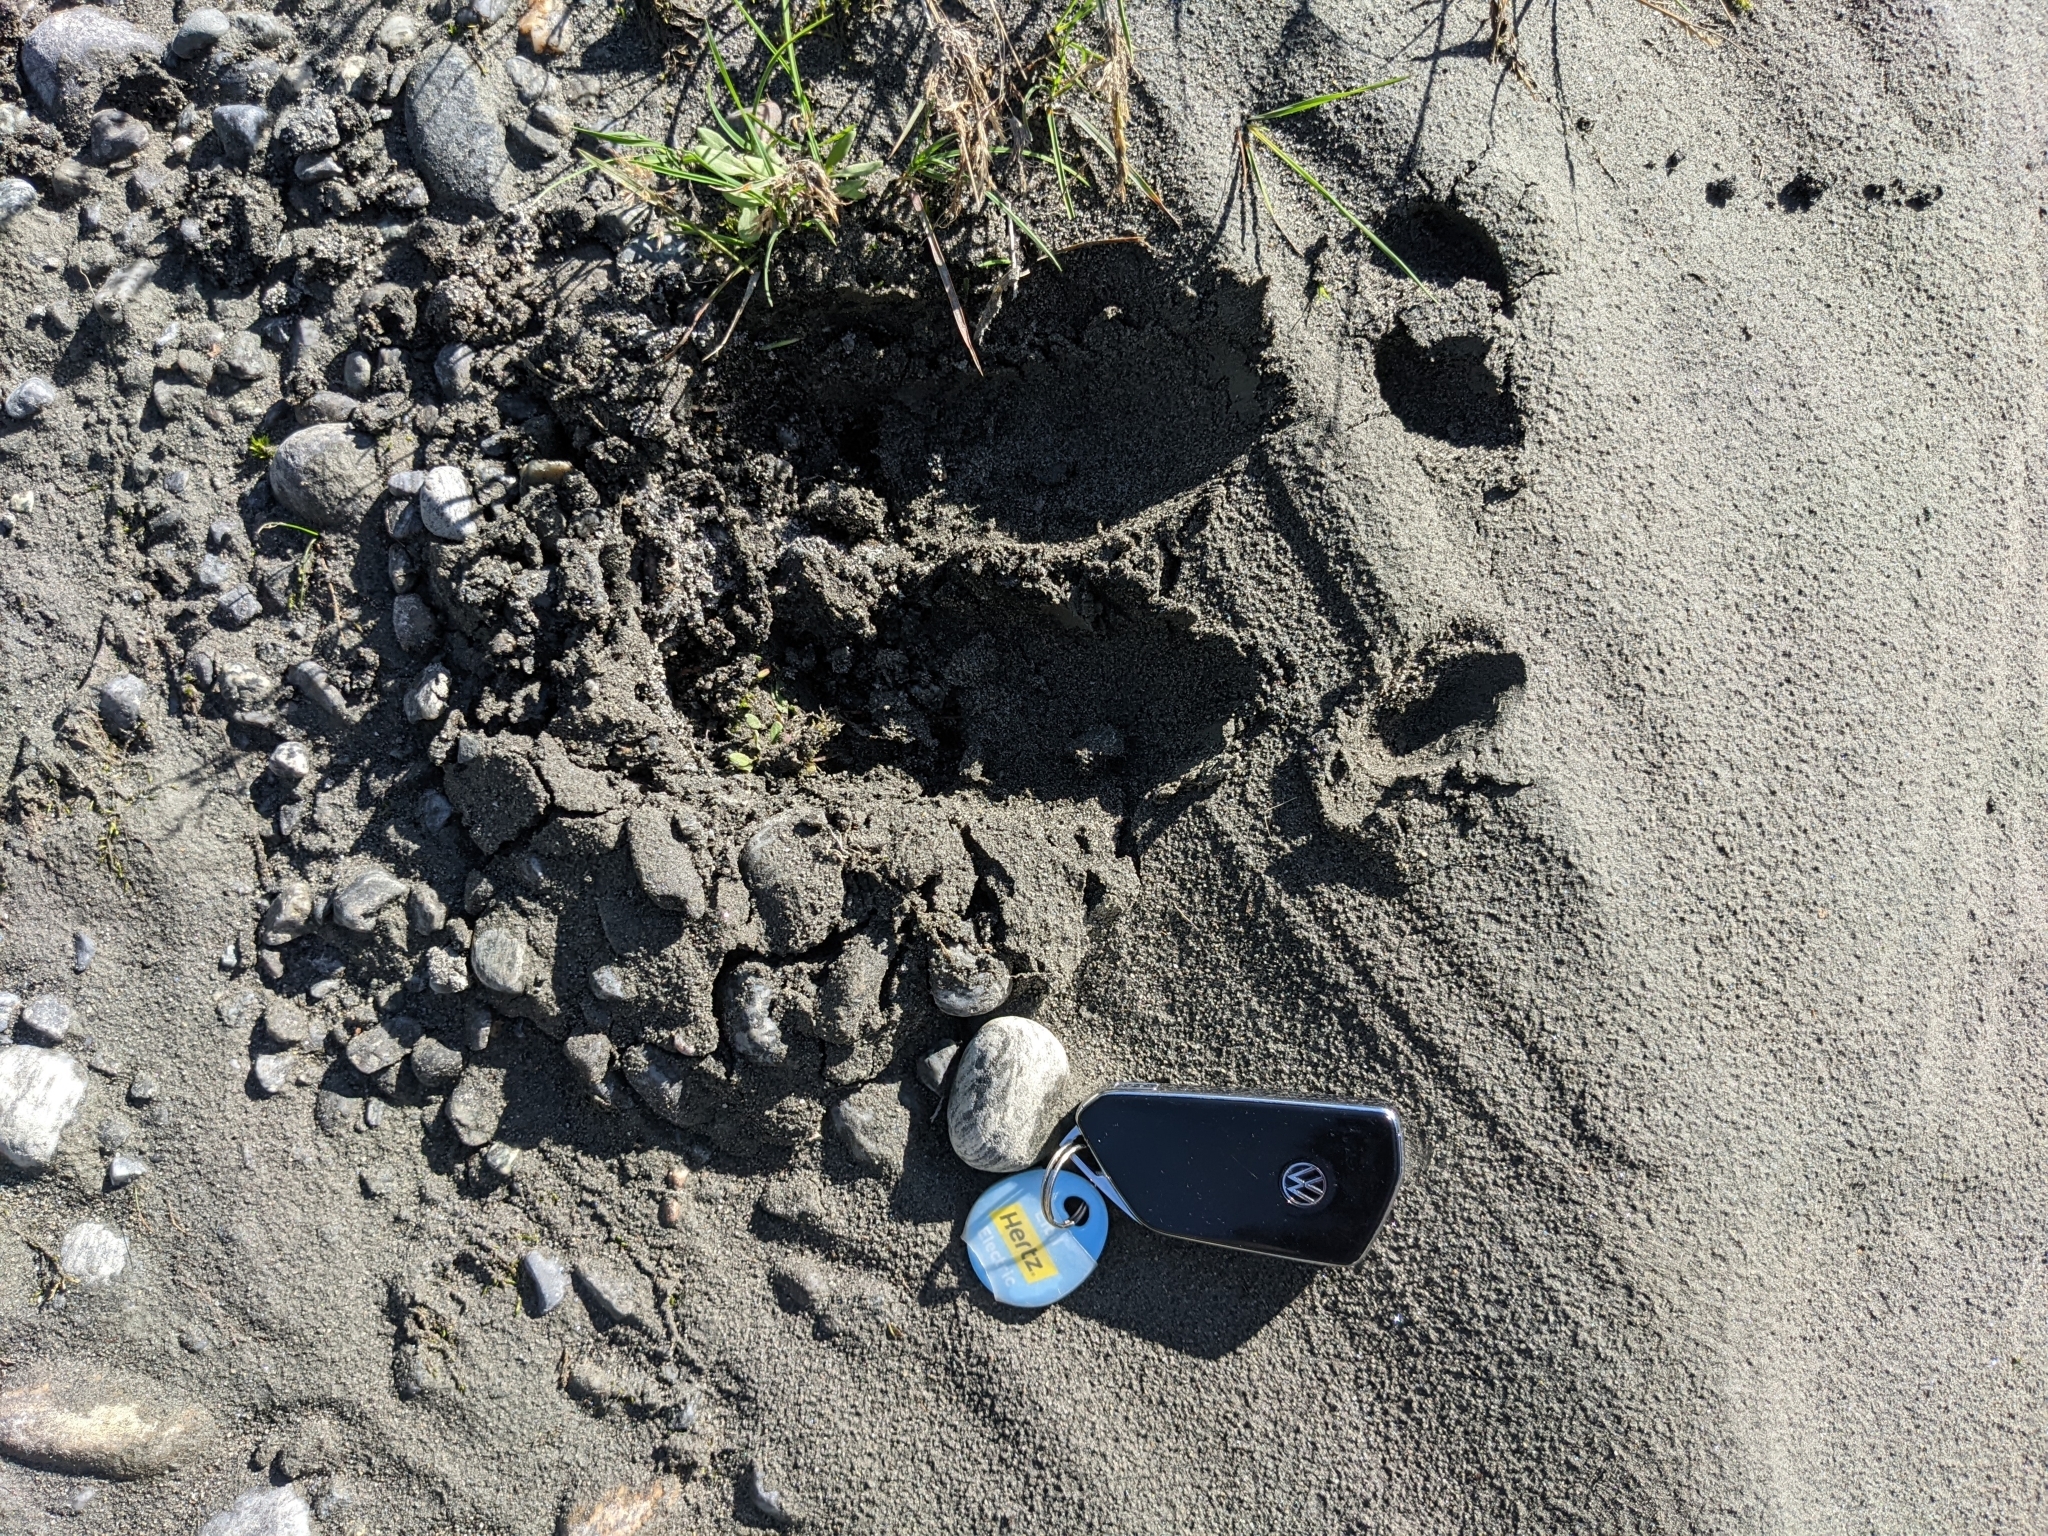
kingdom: Animalia
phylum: Chordata
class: Mammalia
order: Artiodactyla
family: Cervidae
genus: Rangifer
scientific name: Rangifer tarandus
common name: Reindeer
